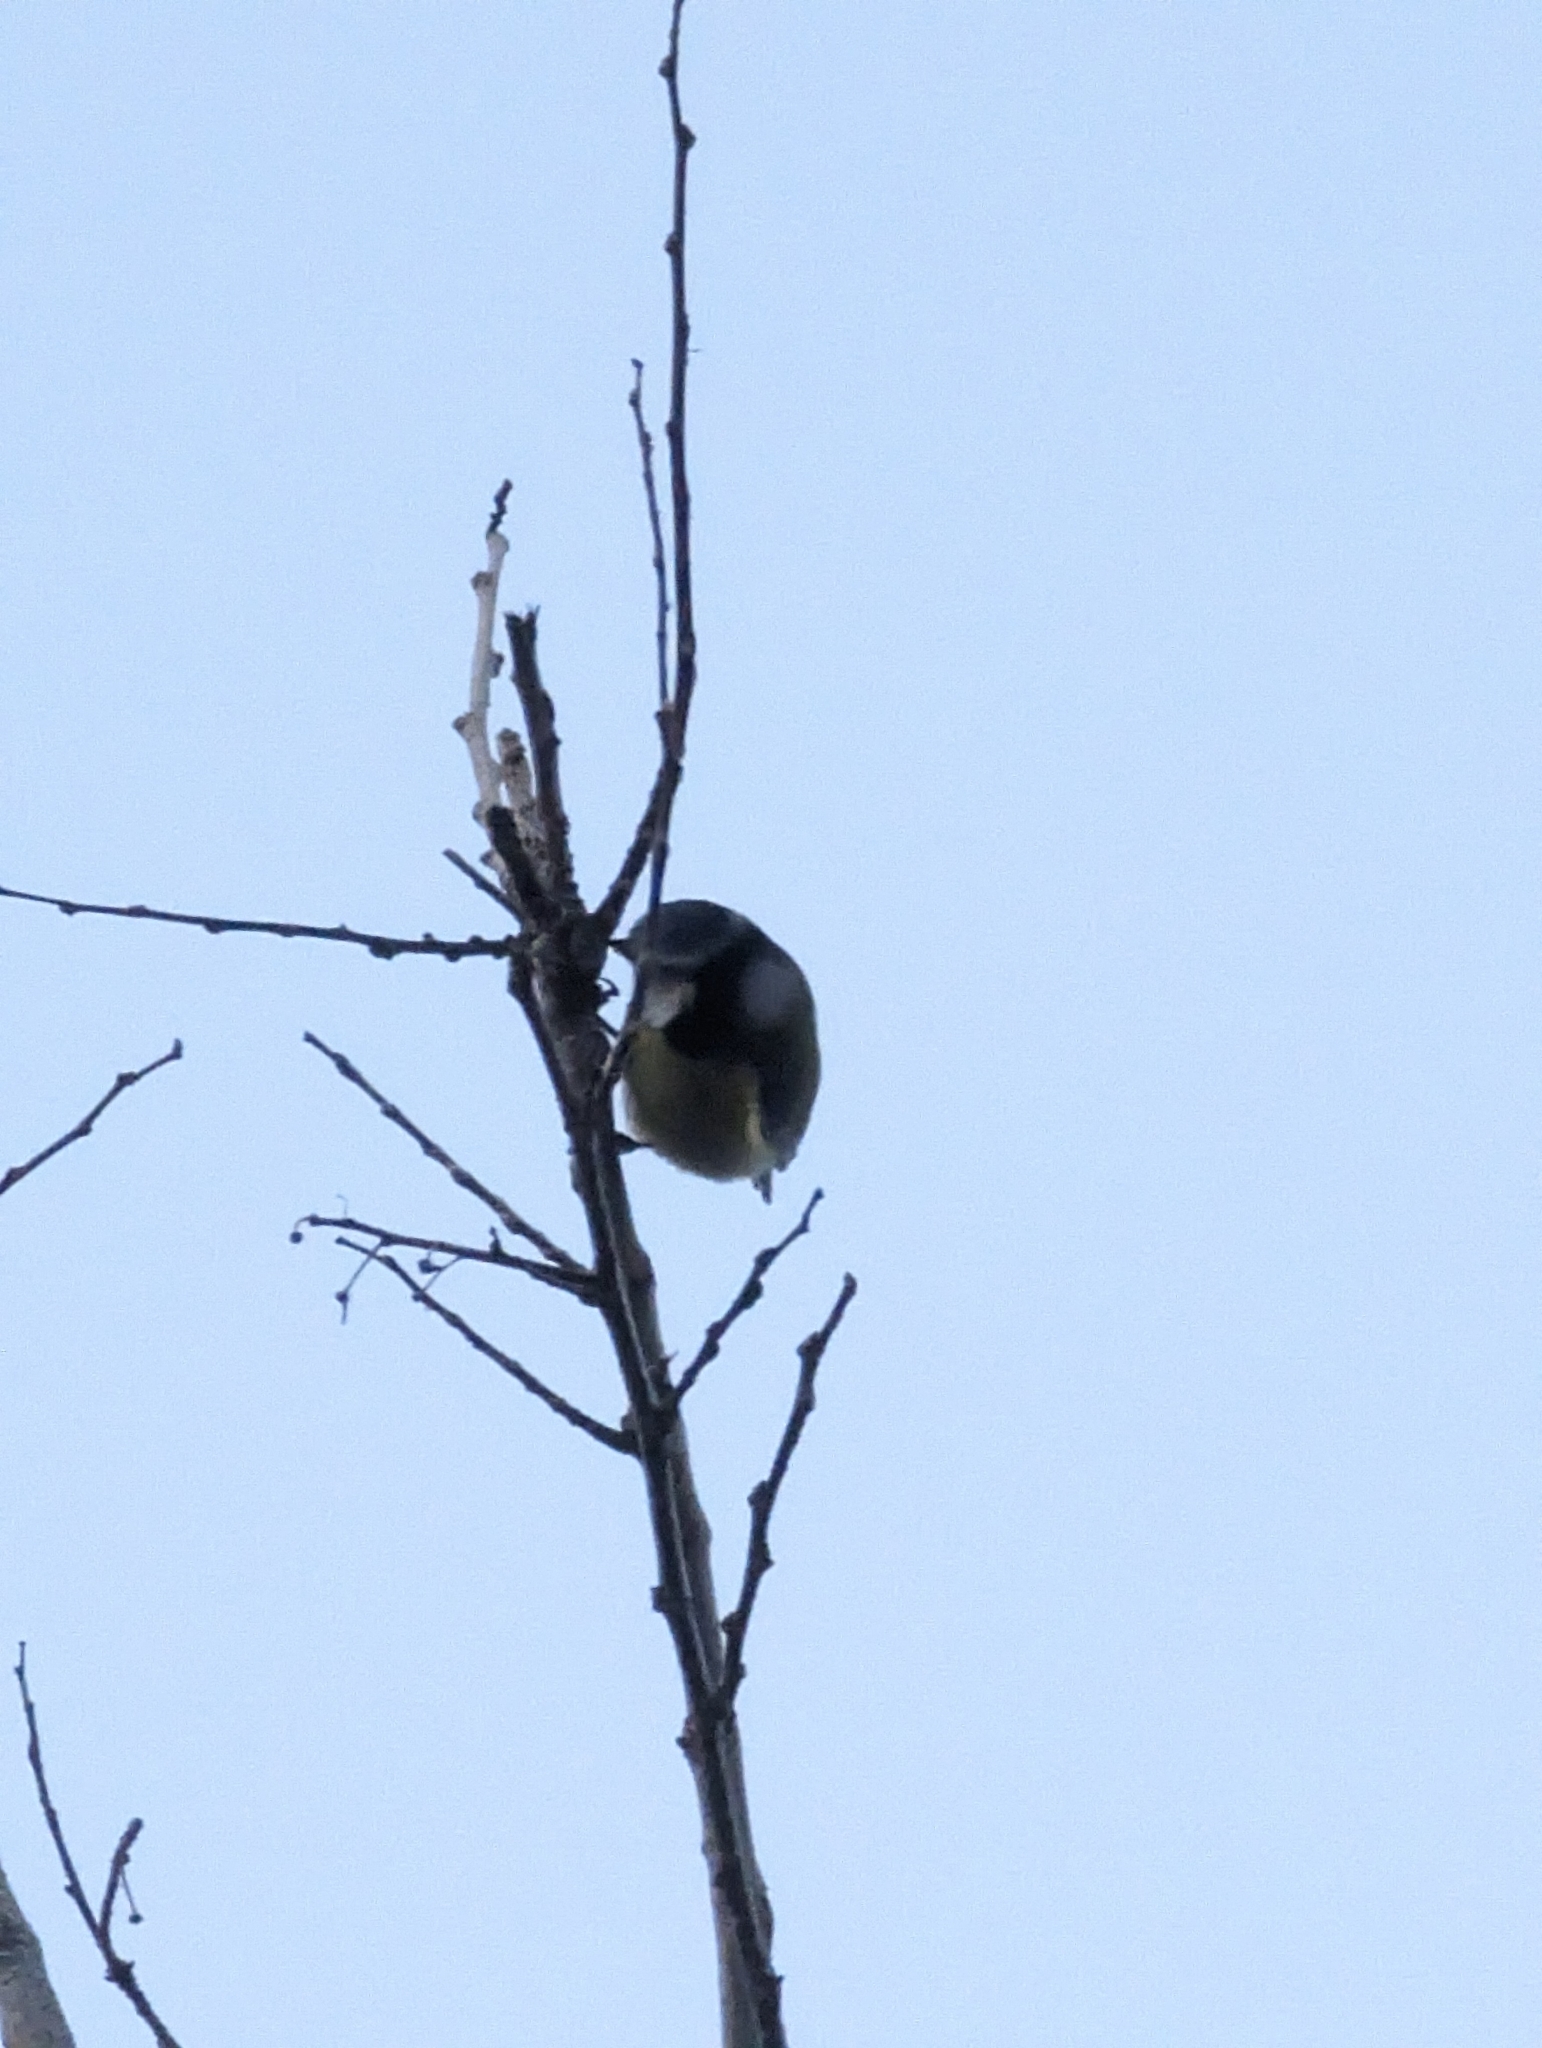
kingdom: Animalia
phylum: Chordata
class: Aves
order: Passeriformes
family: Paridae
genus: Cyanistes
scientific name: Cyanistes caeruleus
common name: Eurasian blue tit
